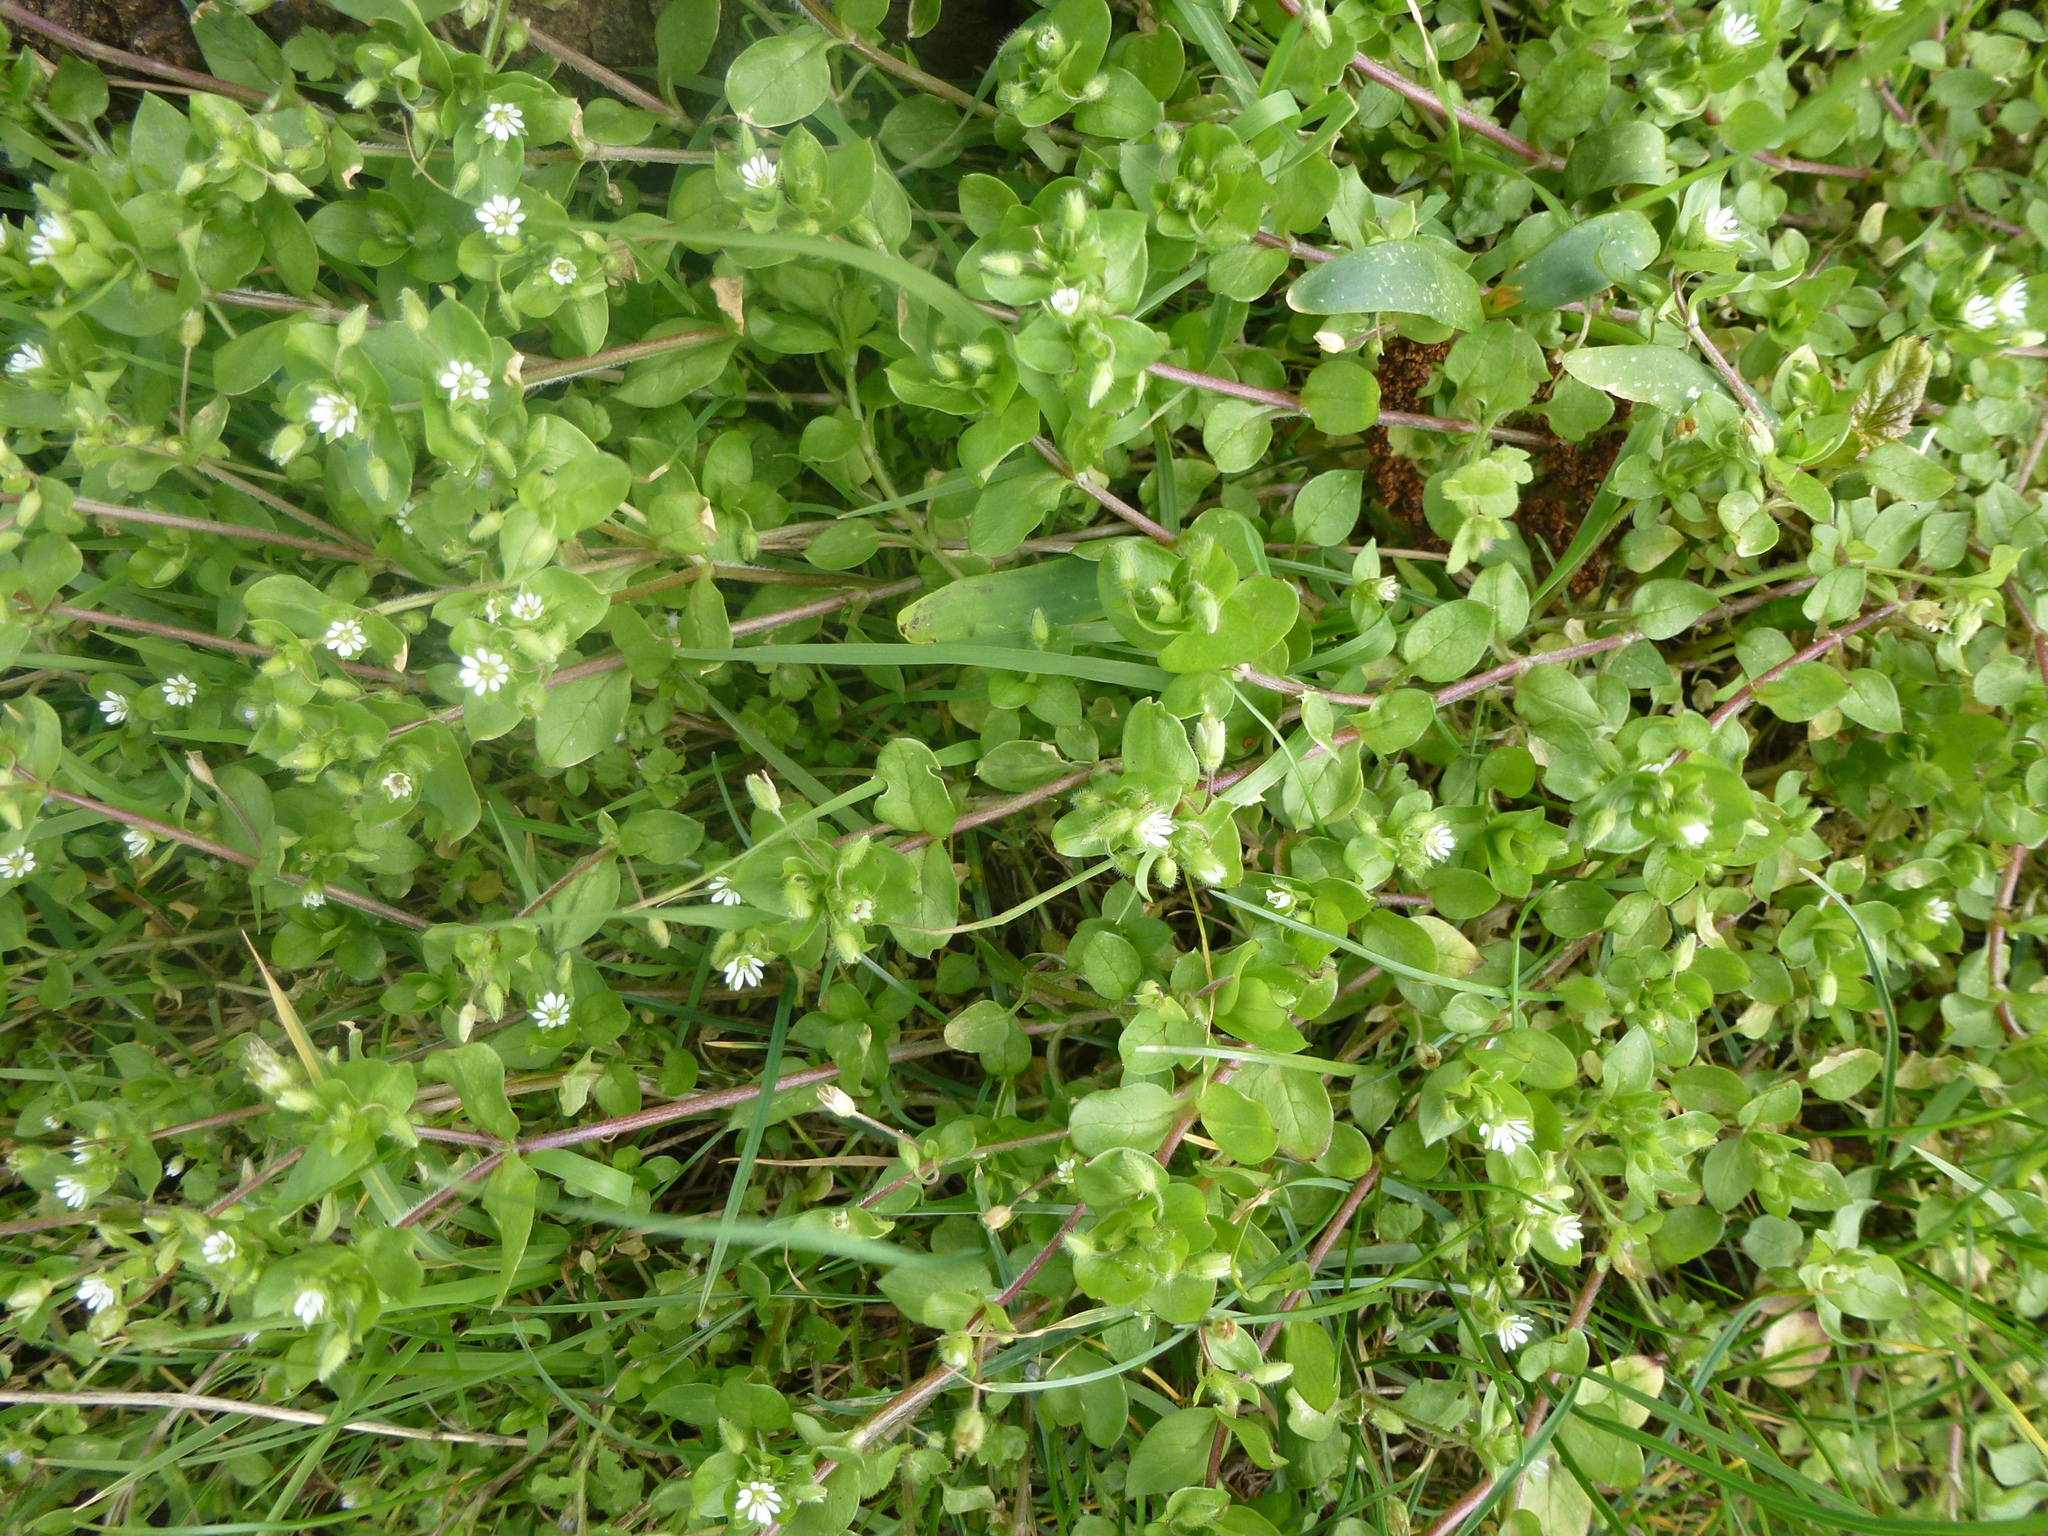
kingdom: Plantae
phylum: Tracheophyta
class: Magnoliopsida
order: Caryophyllales
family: Caryophyllaceae
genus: Stellaria
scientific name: Stellaria media
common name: Common chickweed
